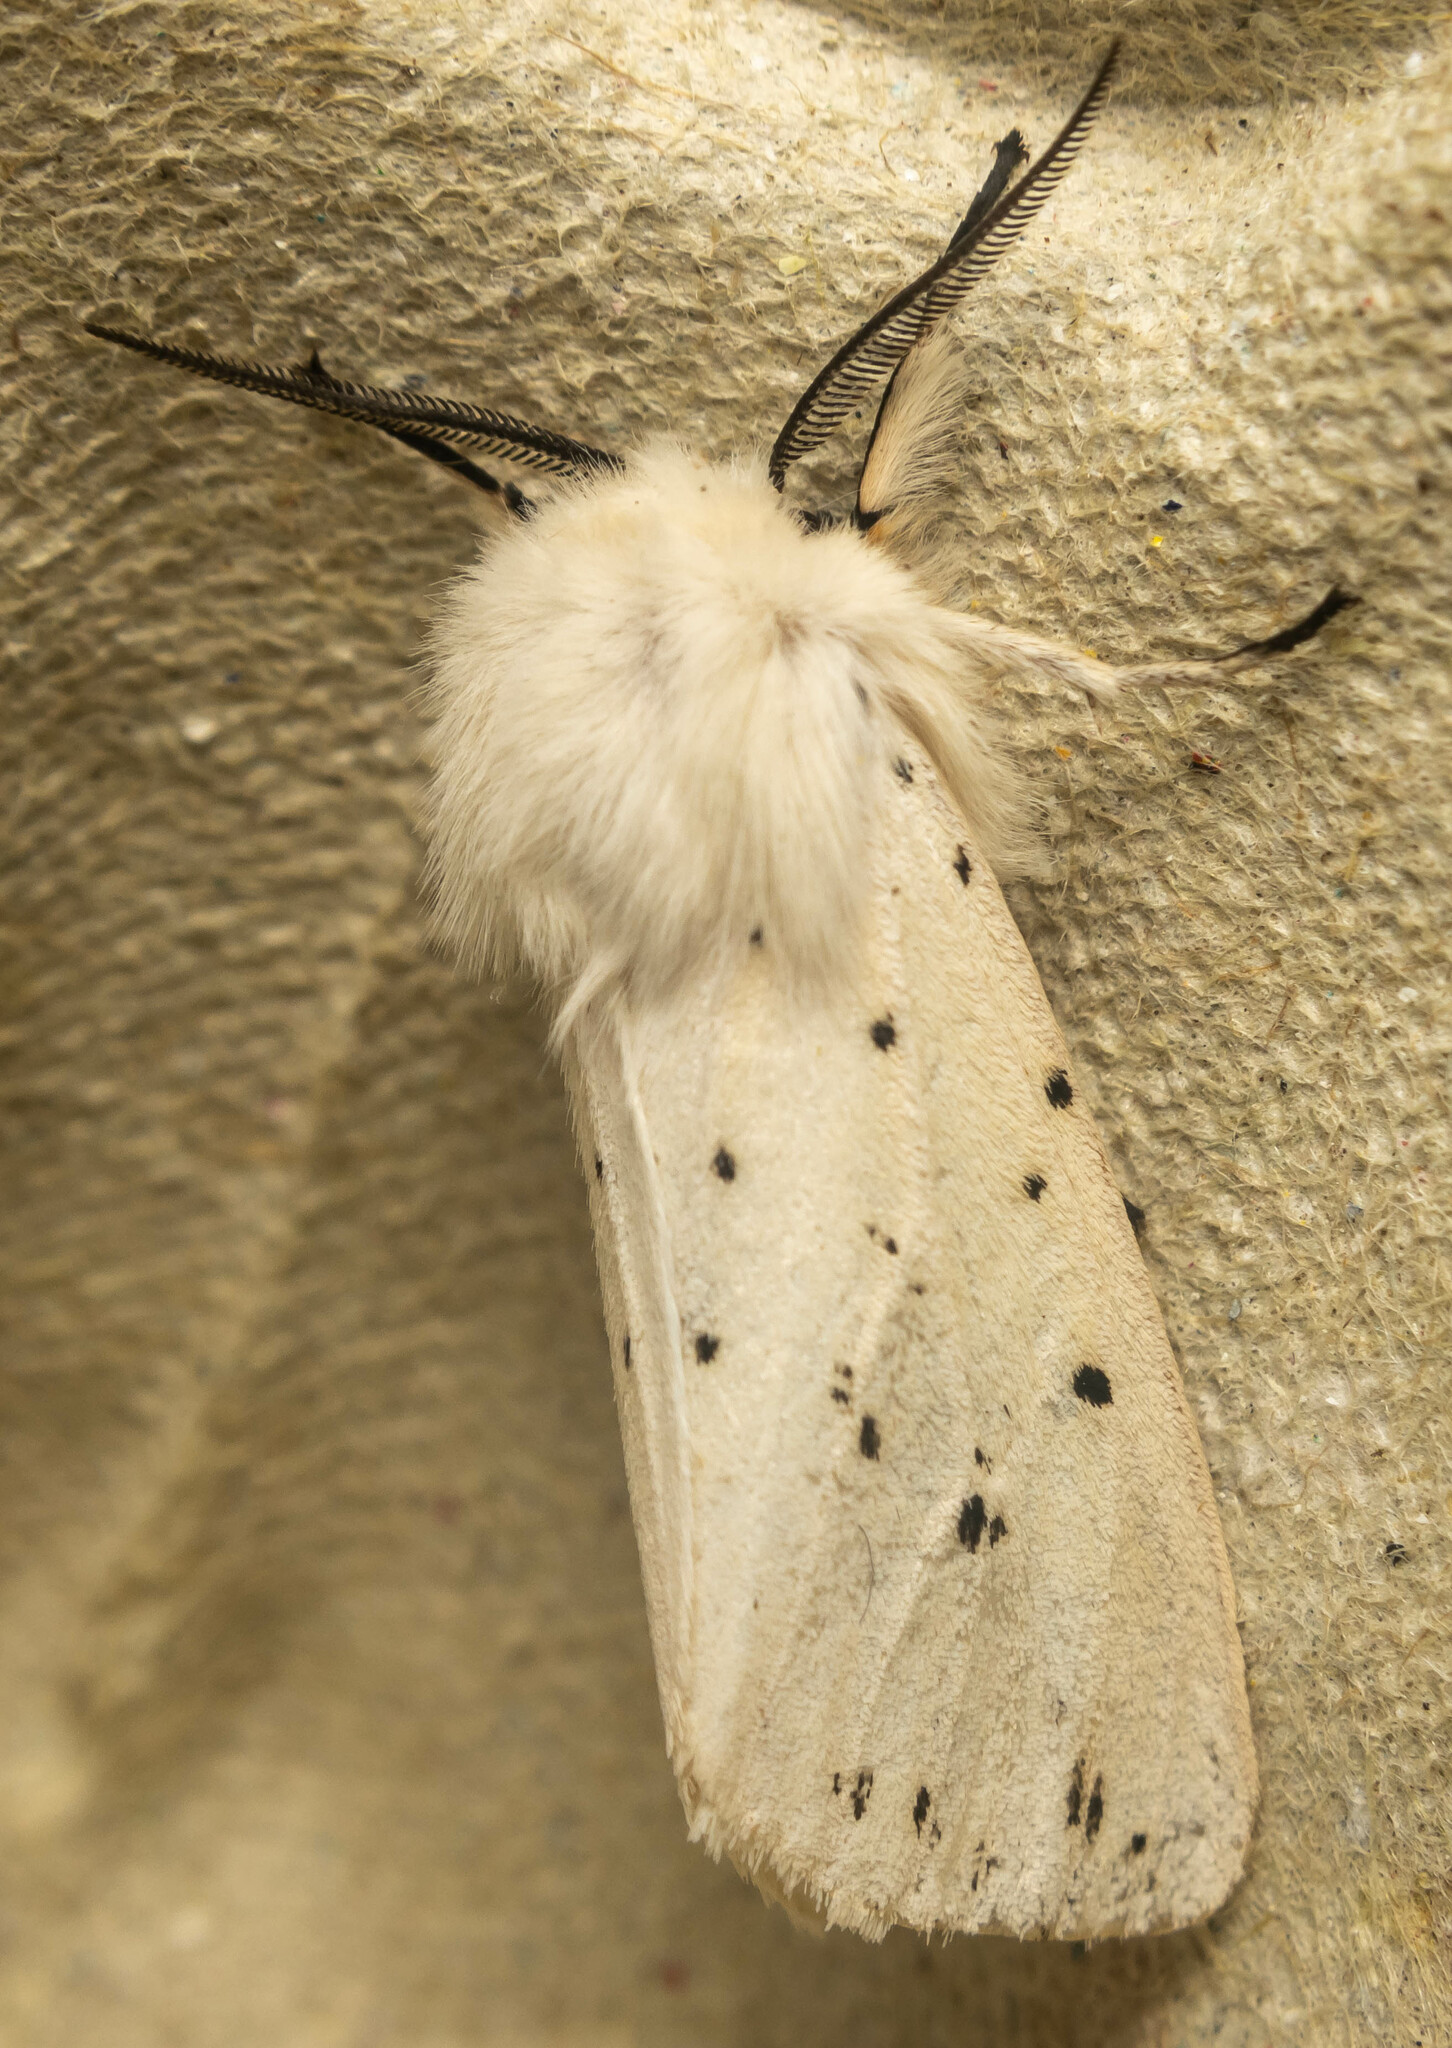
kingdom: Animalia
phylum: Arthropoda
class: Insecta
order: Lepidoptera
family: Erebidae
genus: Spilosoma
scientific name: Spilosoma lubricipeda
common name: White ermine
